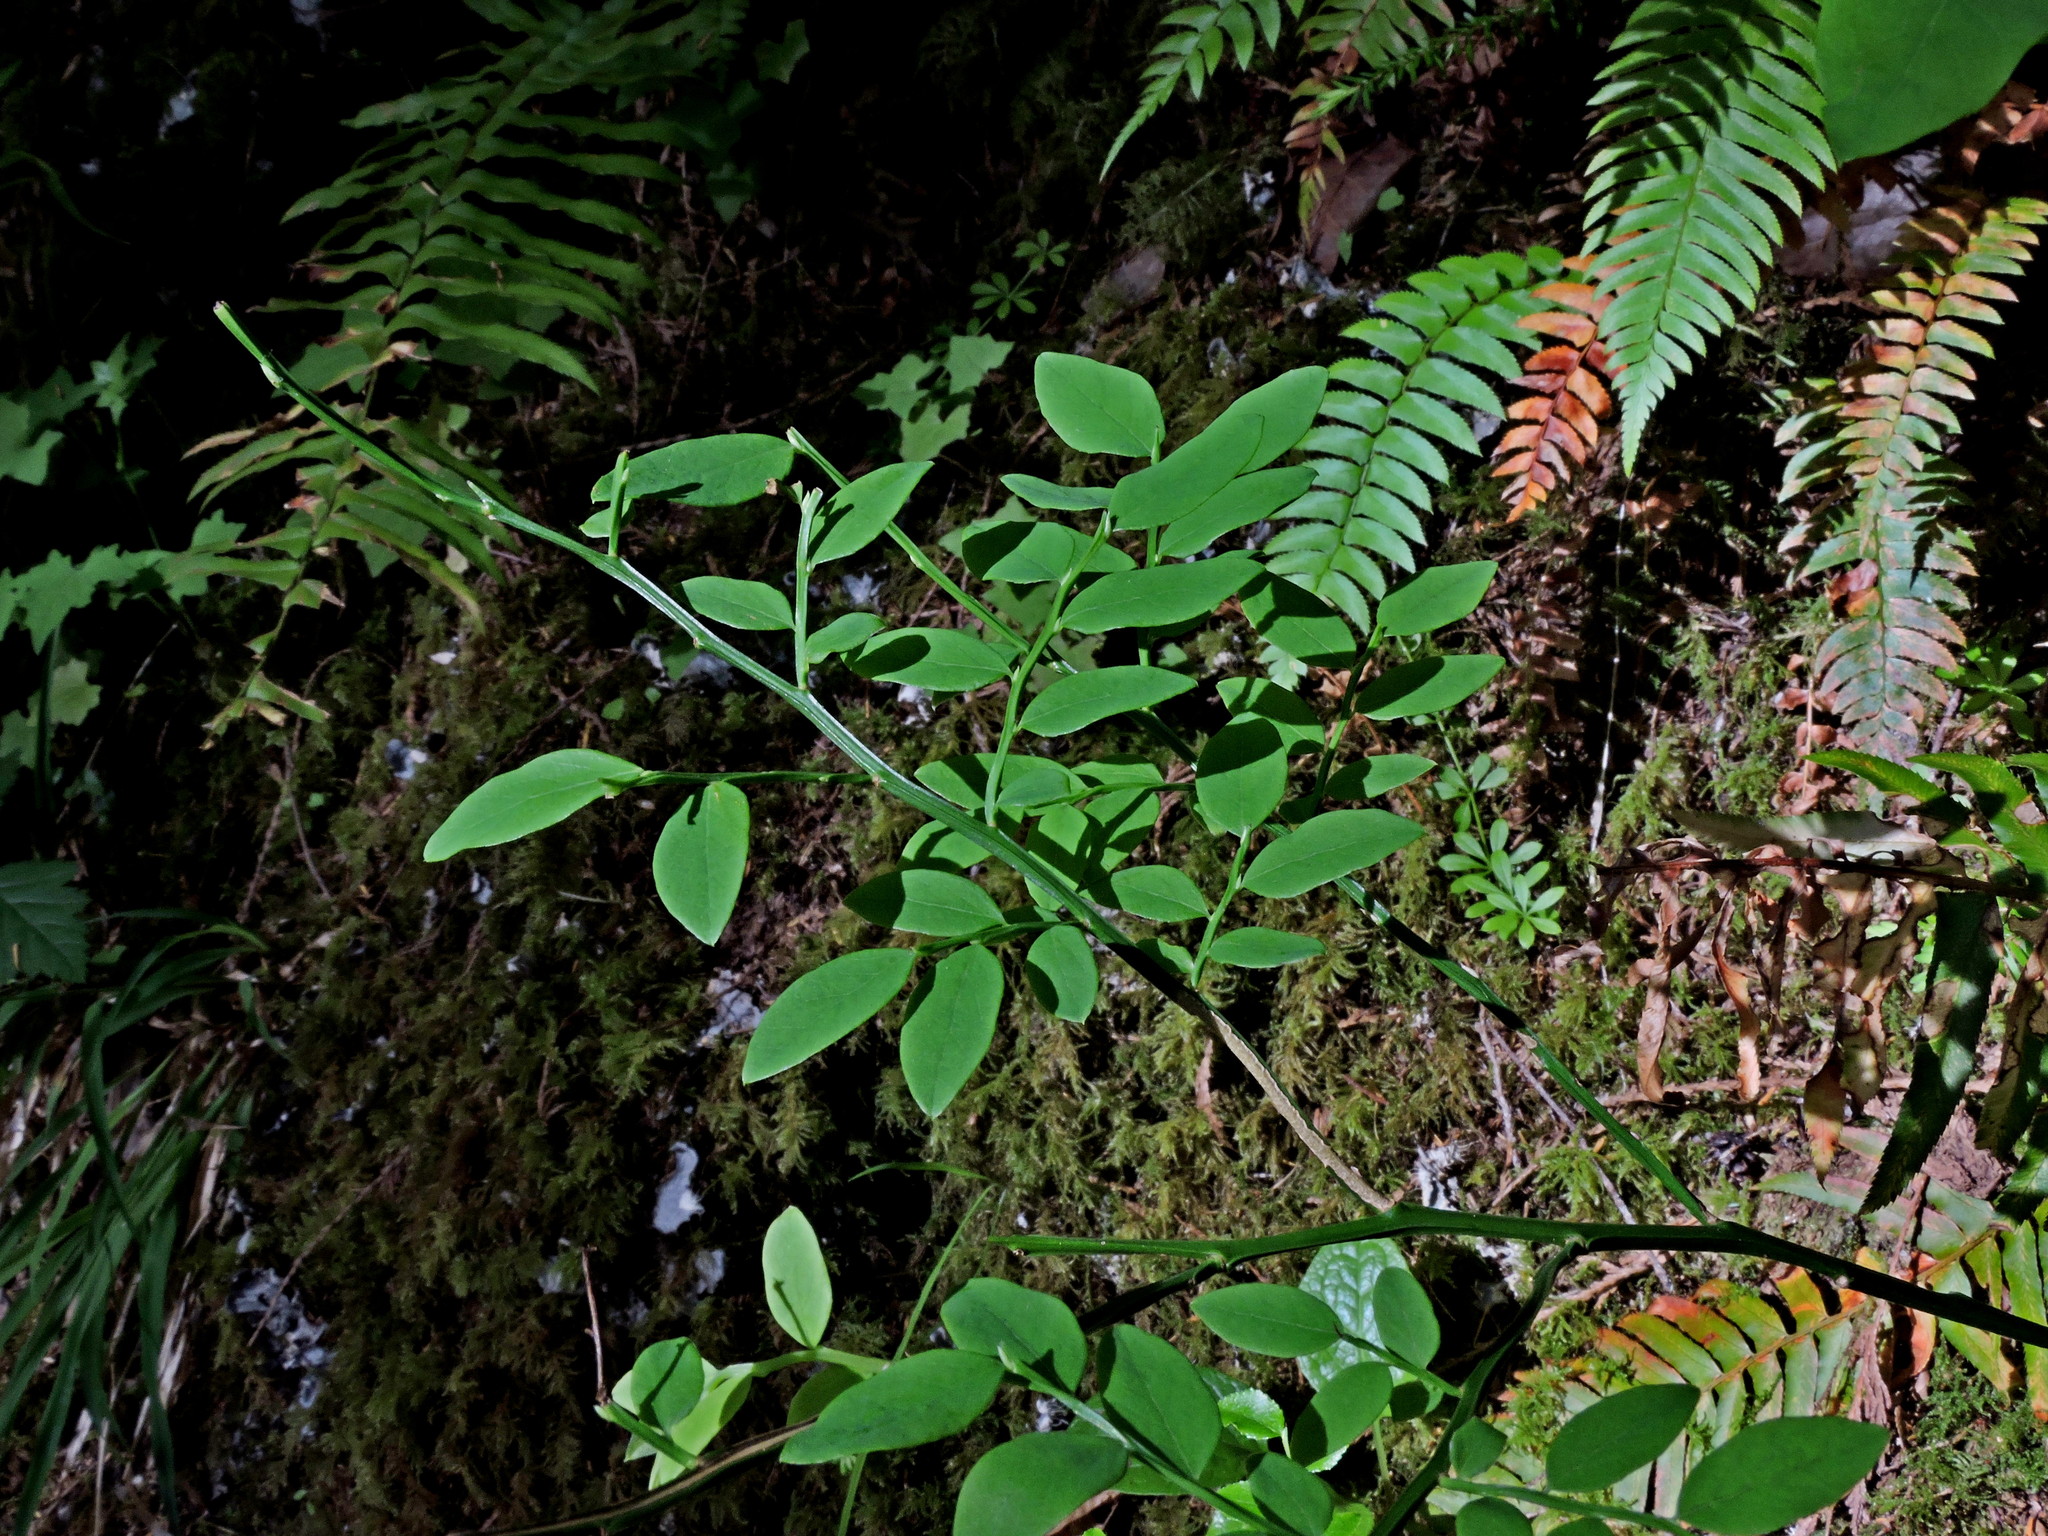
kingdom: Plantae
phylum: Tracheophyta
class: Magnoliopsida
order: Ericales
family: Ericaceae
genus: Vaccinium
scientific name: Vaccinium parvifolium
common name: Red-huckleberry
